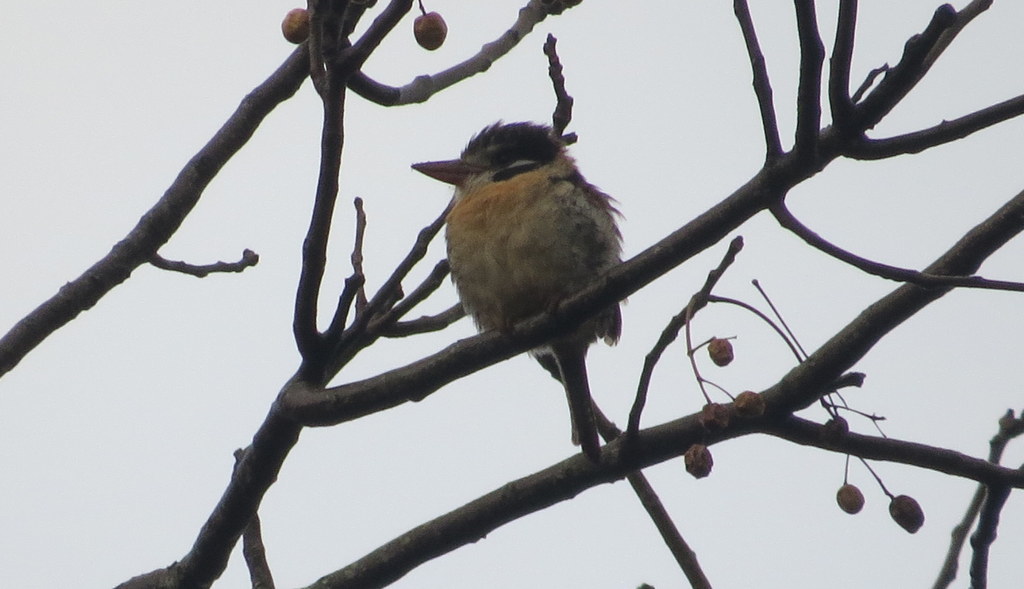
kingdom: Animalia
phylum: Chordata
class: Aves
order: Piciformes
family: Bucconidae
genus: Nystalus
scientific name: Nystalus chacuru
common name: White-eared puffbird
